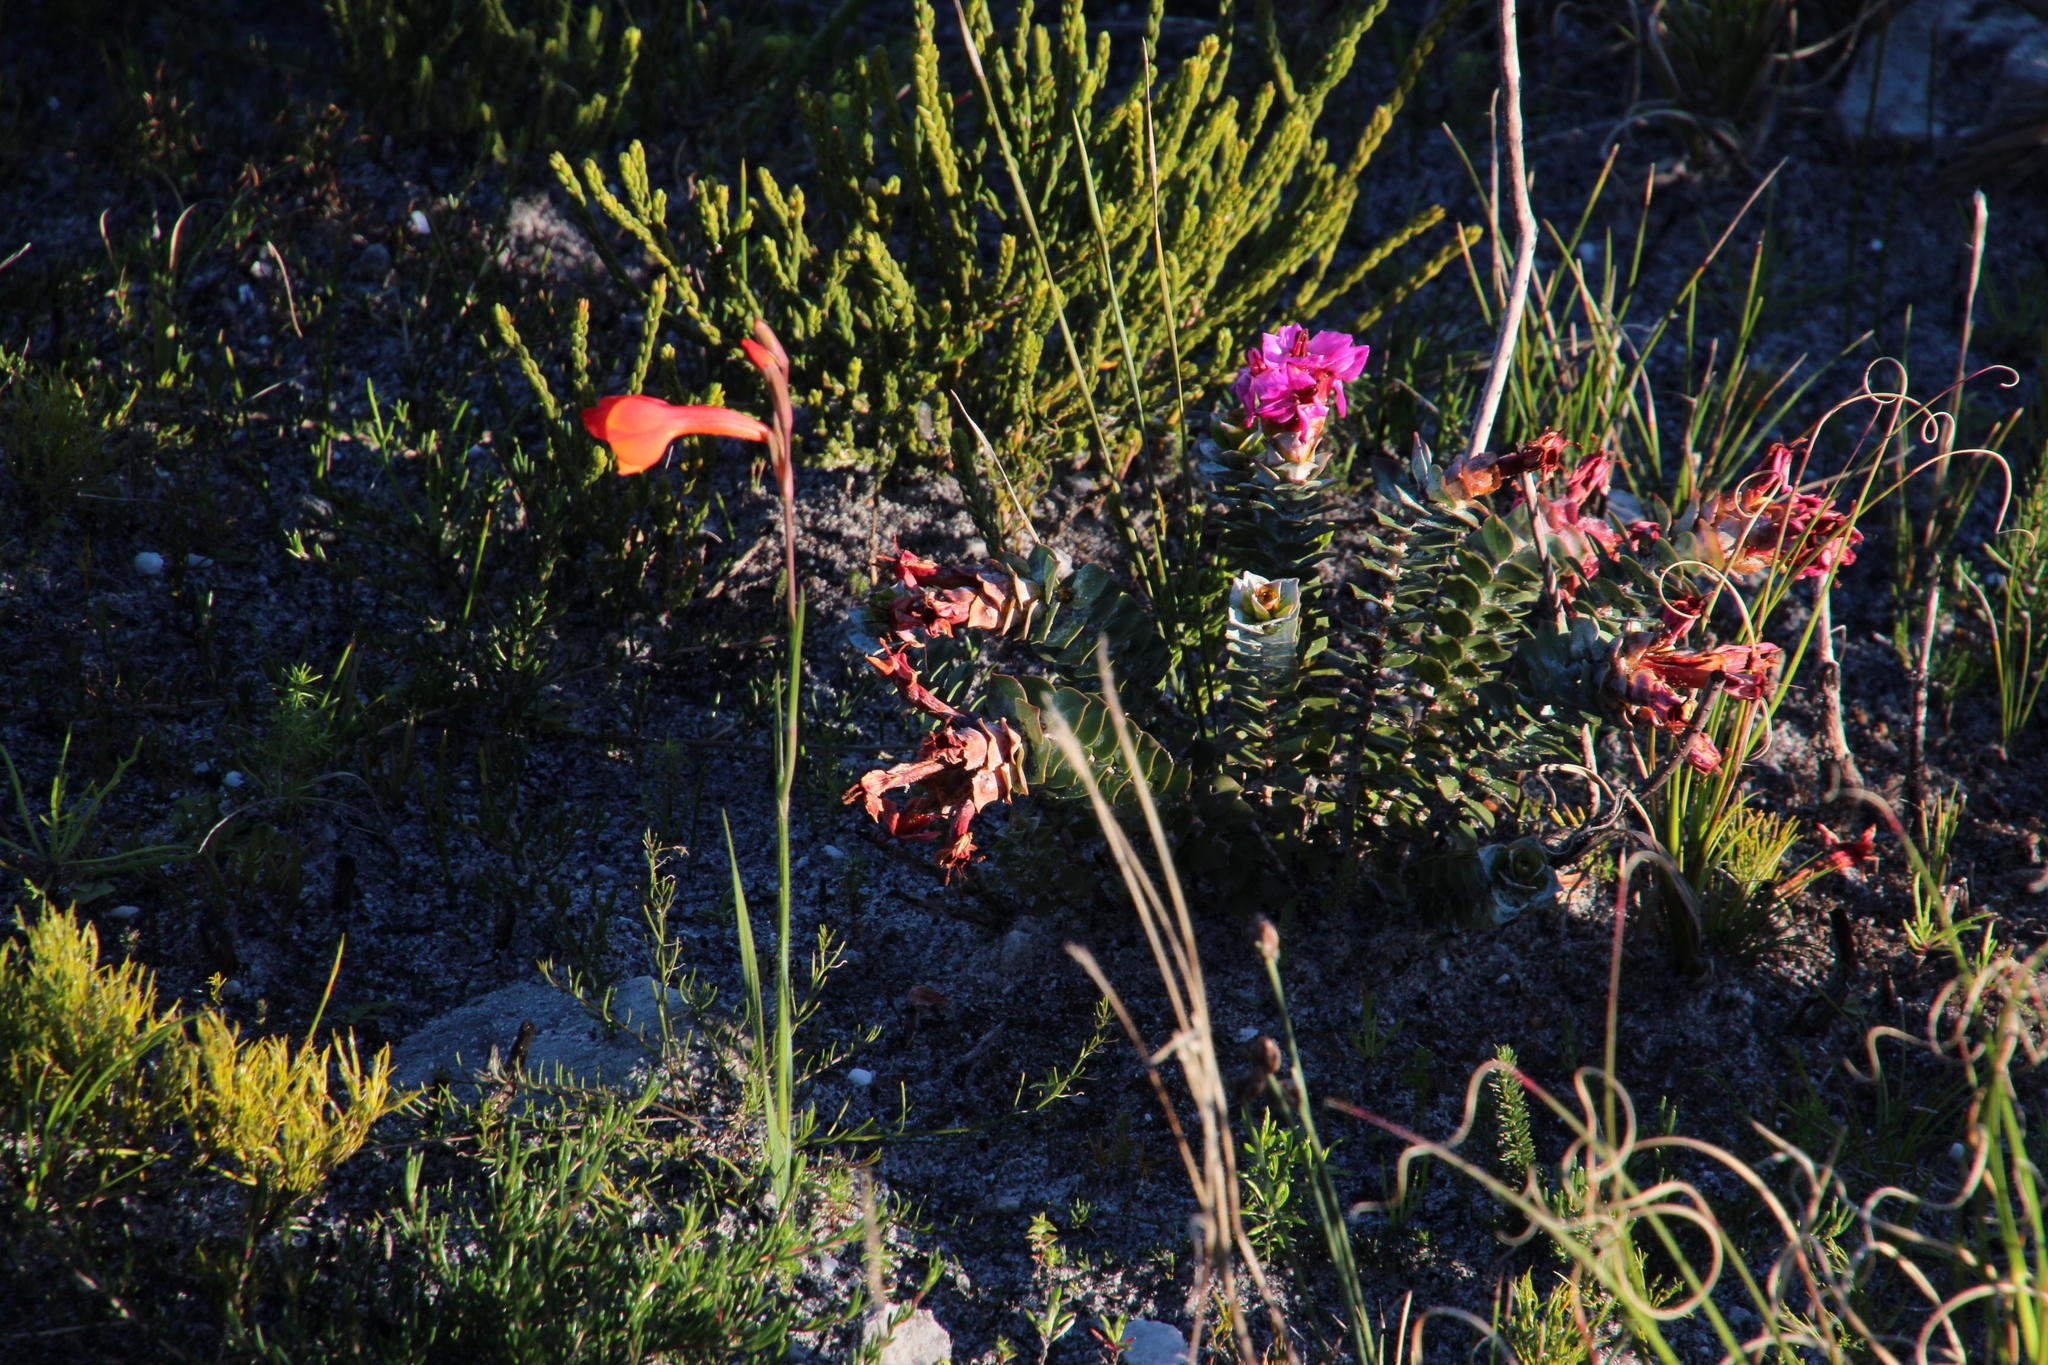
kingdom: Plantae
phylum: Tracheophyta
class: Liliopsida
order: Asparagales
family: Iridaceae
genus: Gladiolus
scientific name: Gladiolus merianellus
